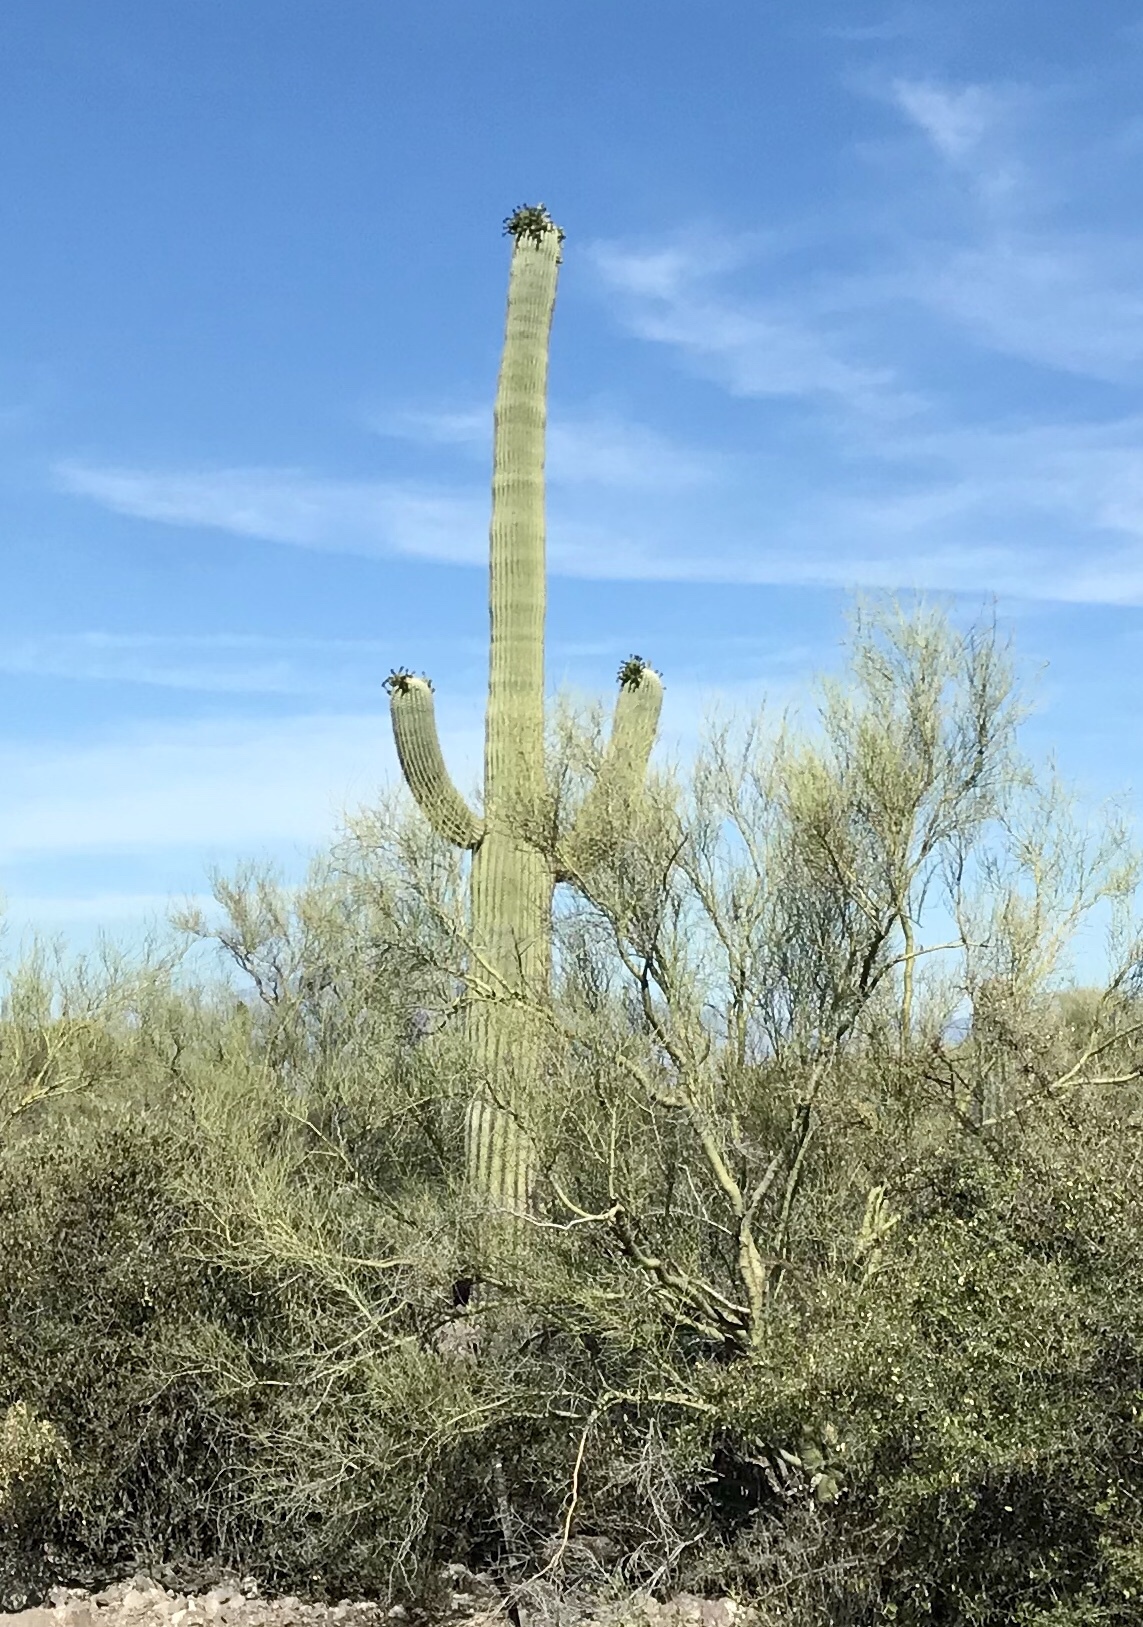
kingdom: Plantae
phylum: Tracheophyta
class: Magnoliopsida
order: Caryophyllales
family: Cactaceae
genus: Carnegiea
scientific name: Carnegiea gigantea
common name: Saguaro
